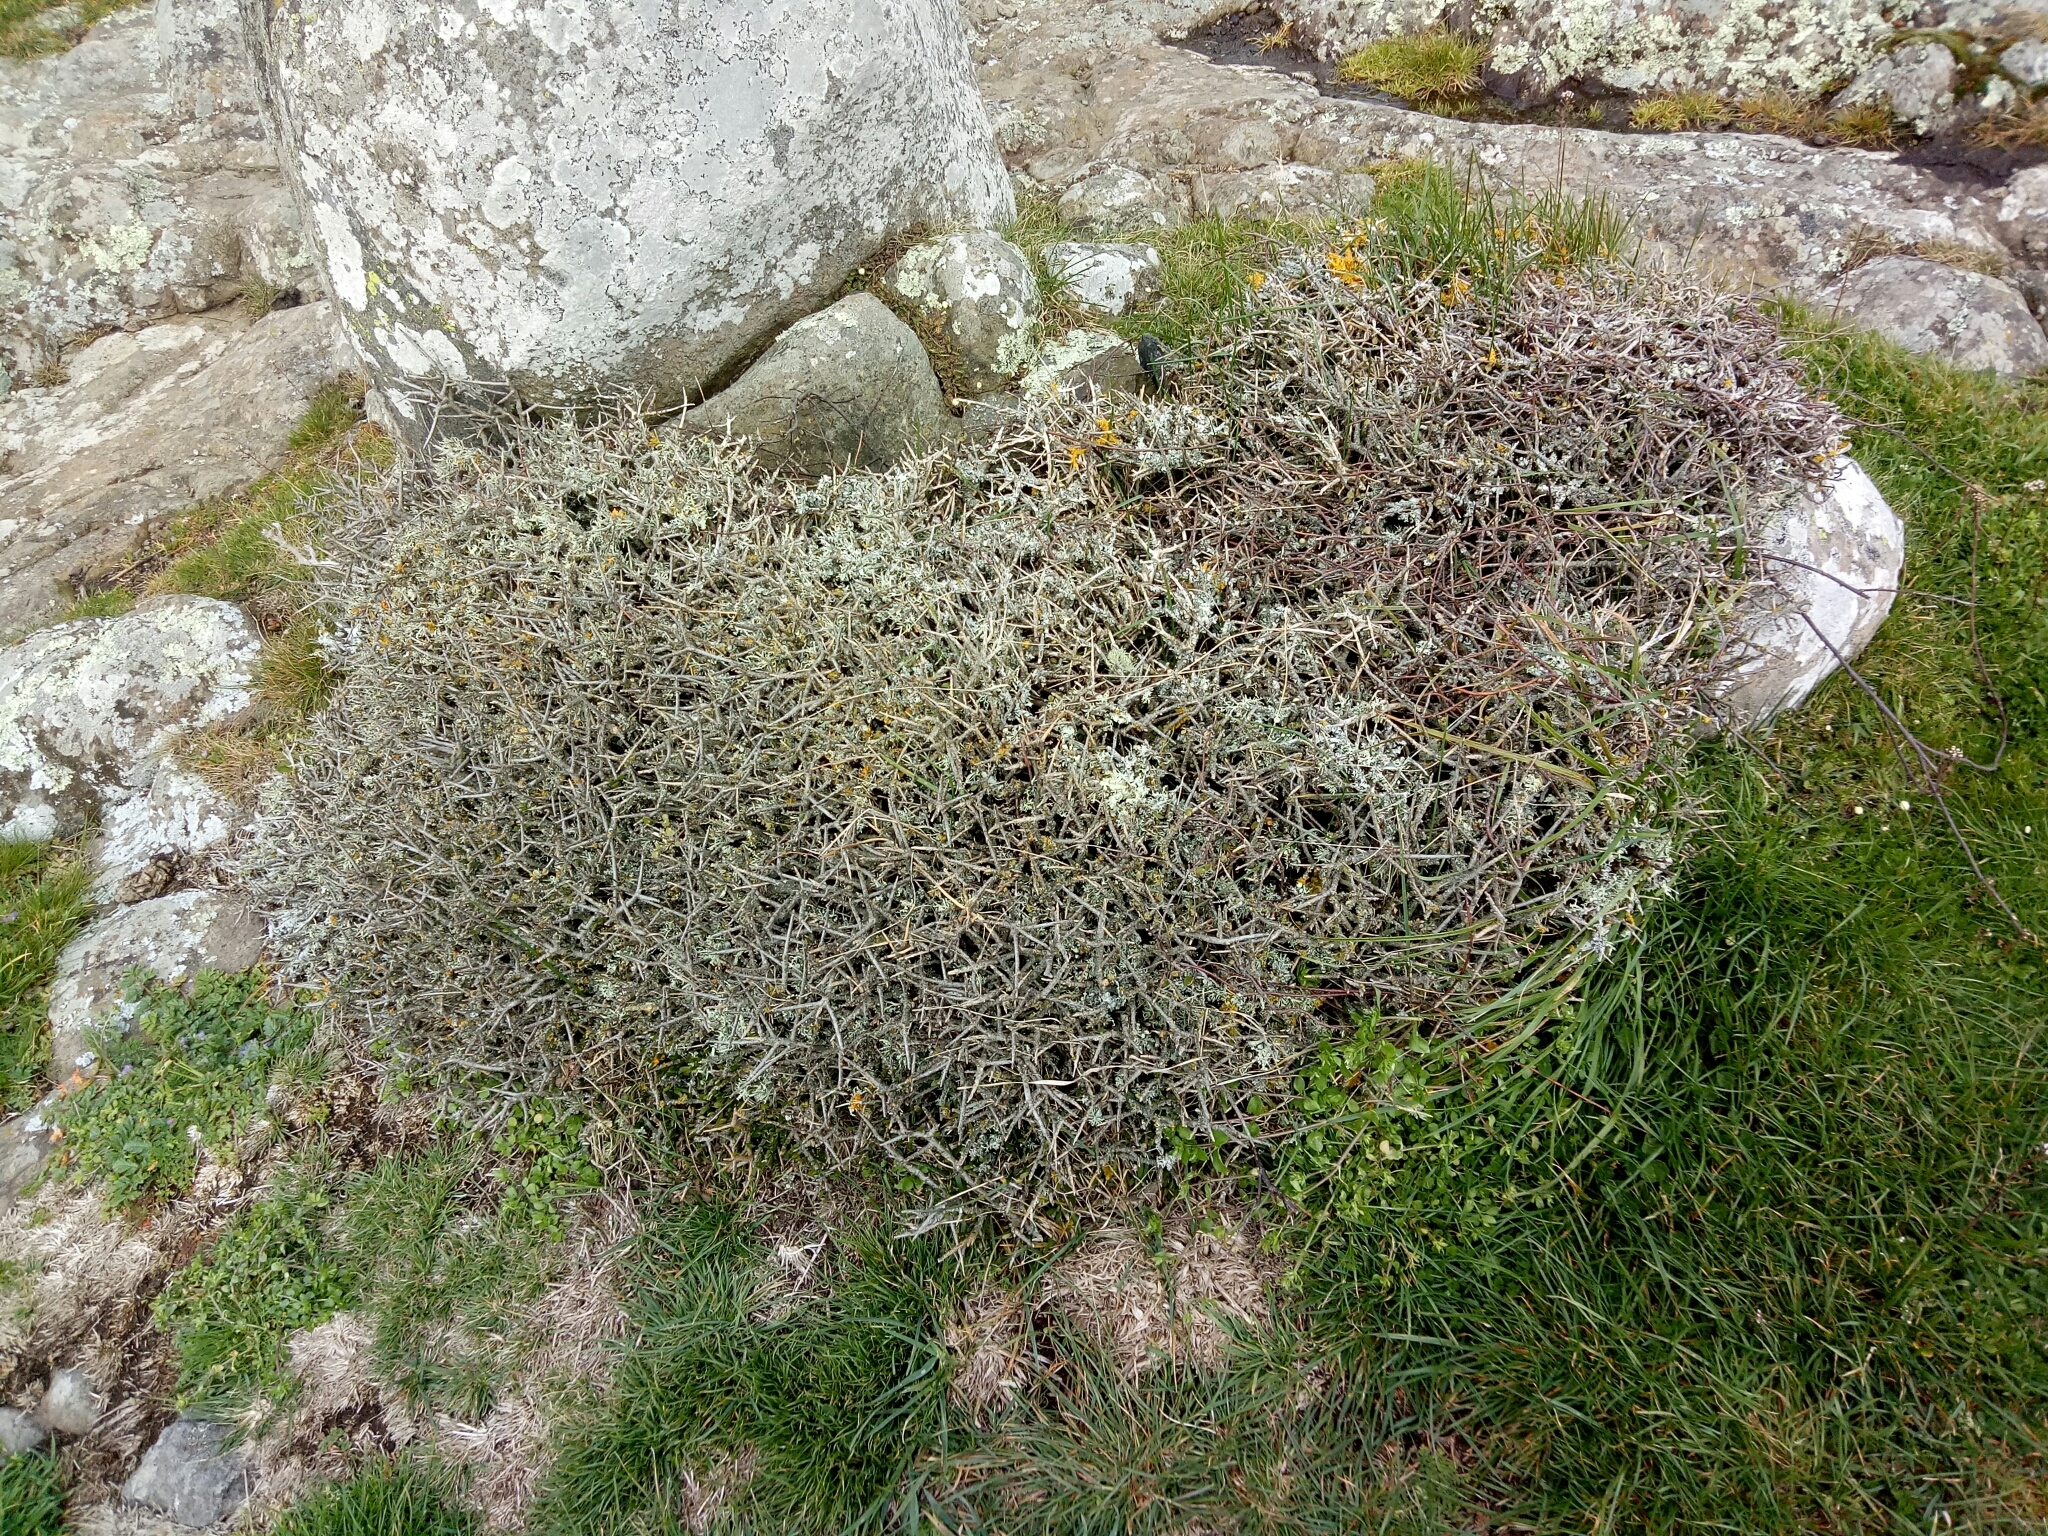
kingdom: Plantae
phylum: Tracheophyta
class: Magnoliopsida
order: Malpighiales
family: Violaceae
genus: Melicytus
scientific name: Melicytus alpinus
